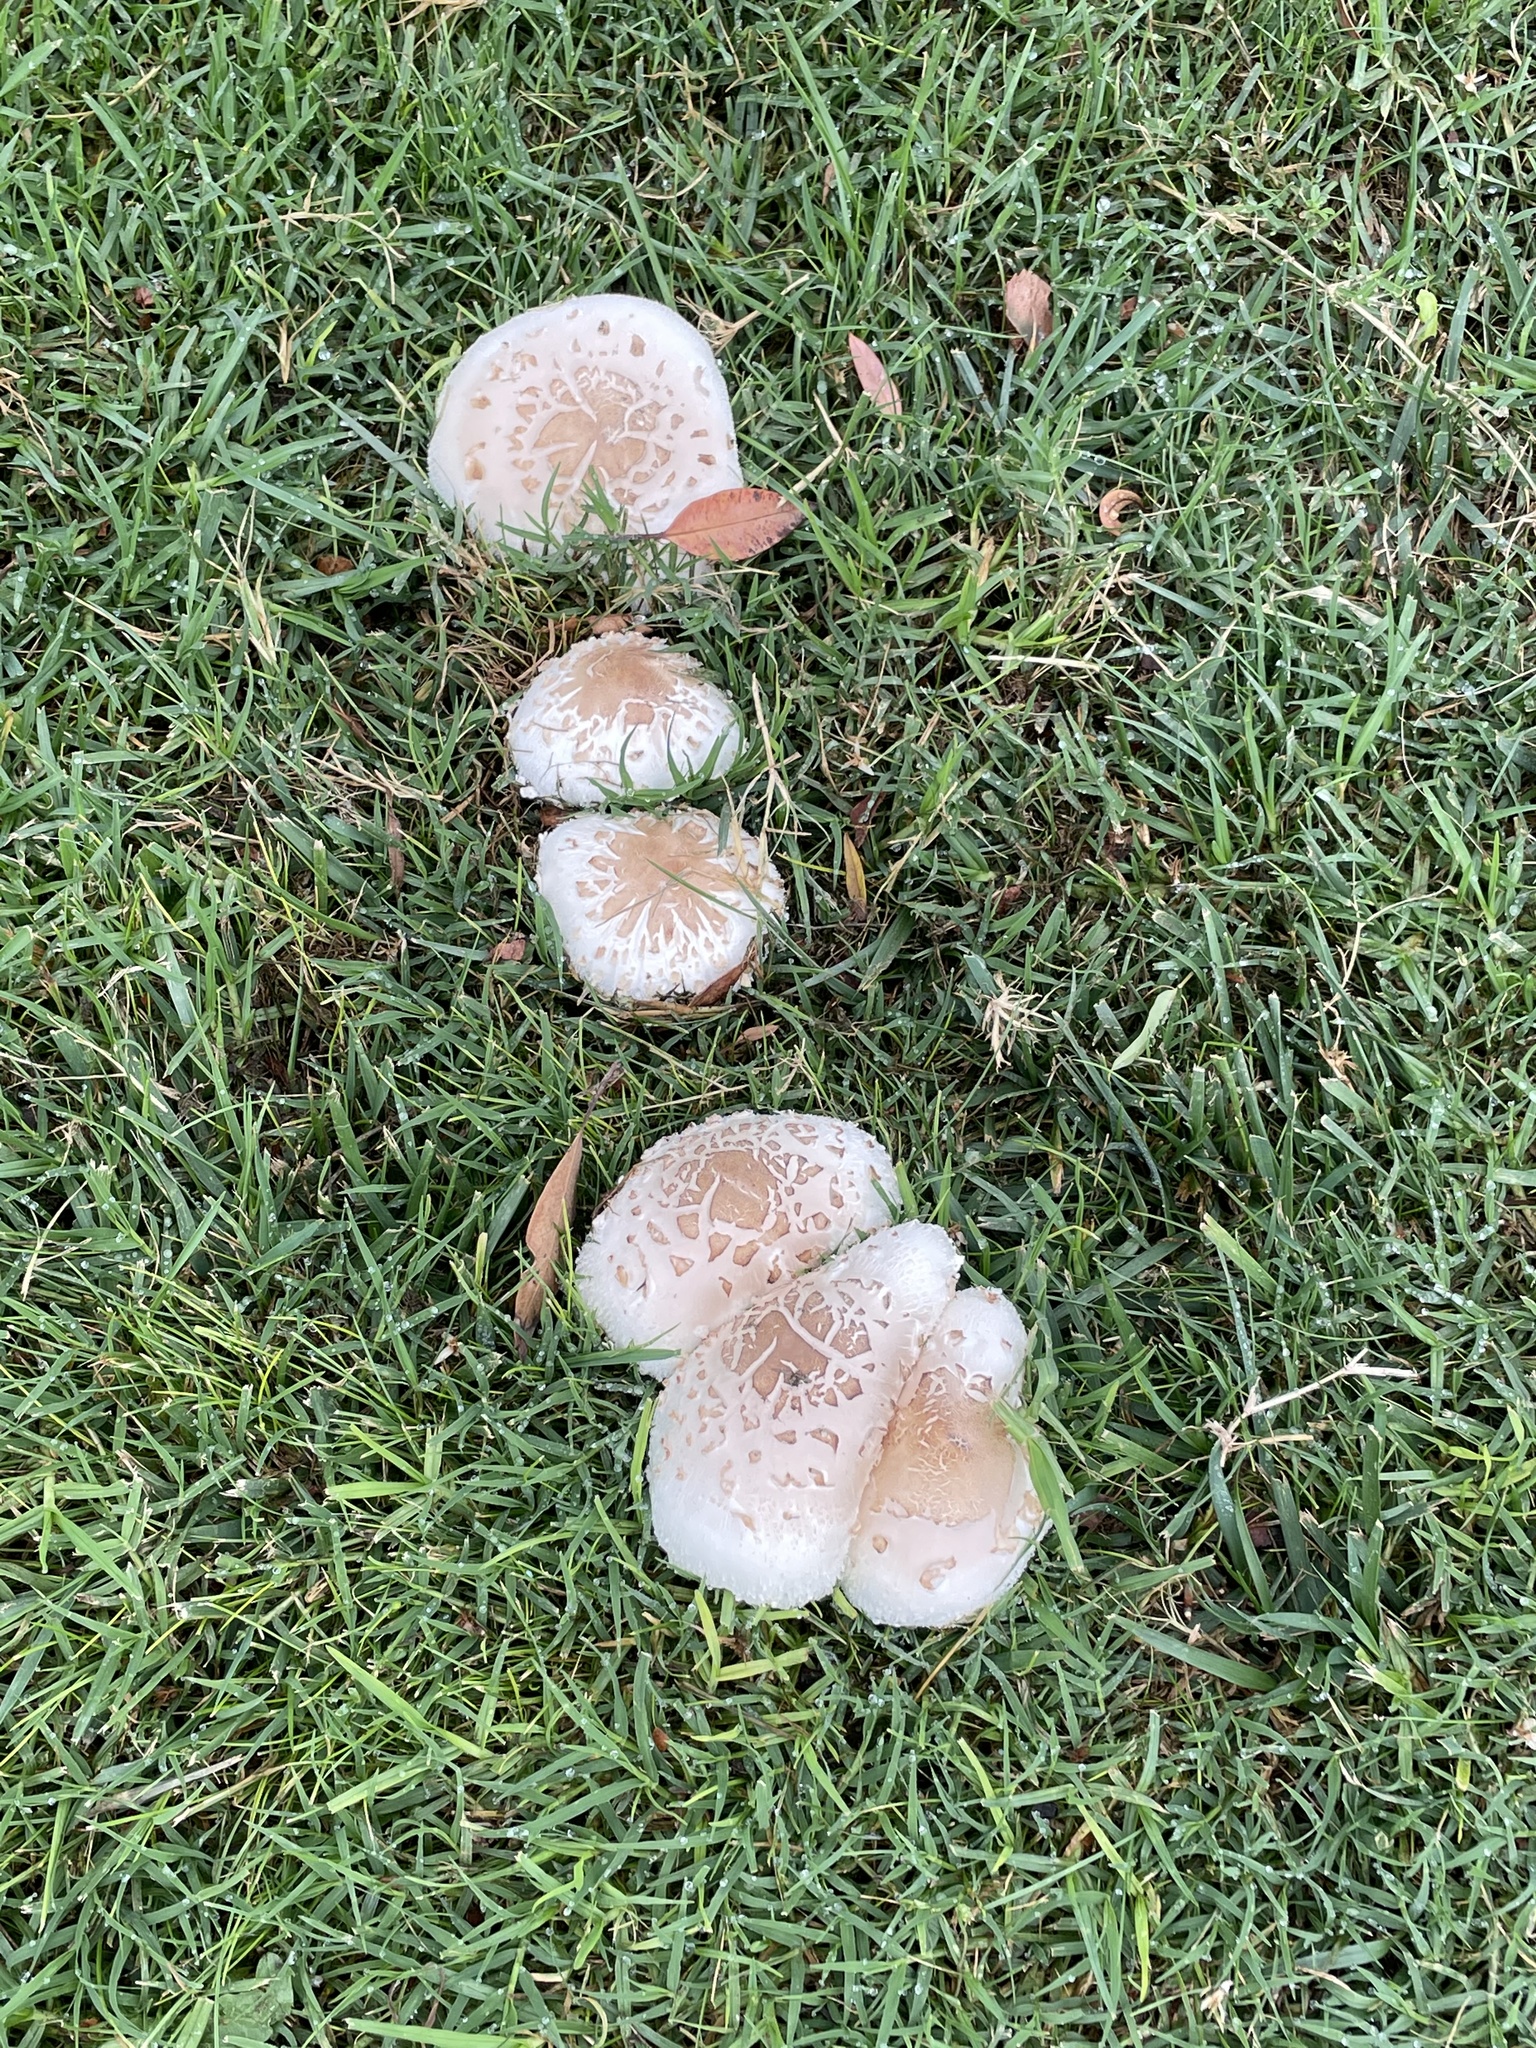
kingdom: Fungi
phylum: Basidiomycota
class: Agaricomycetes
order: Agaricales
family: Agaricaceae
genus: Chlorophyllum
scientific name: Chlorophyllum molybdites
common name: False parasol
